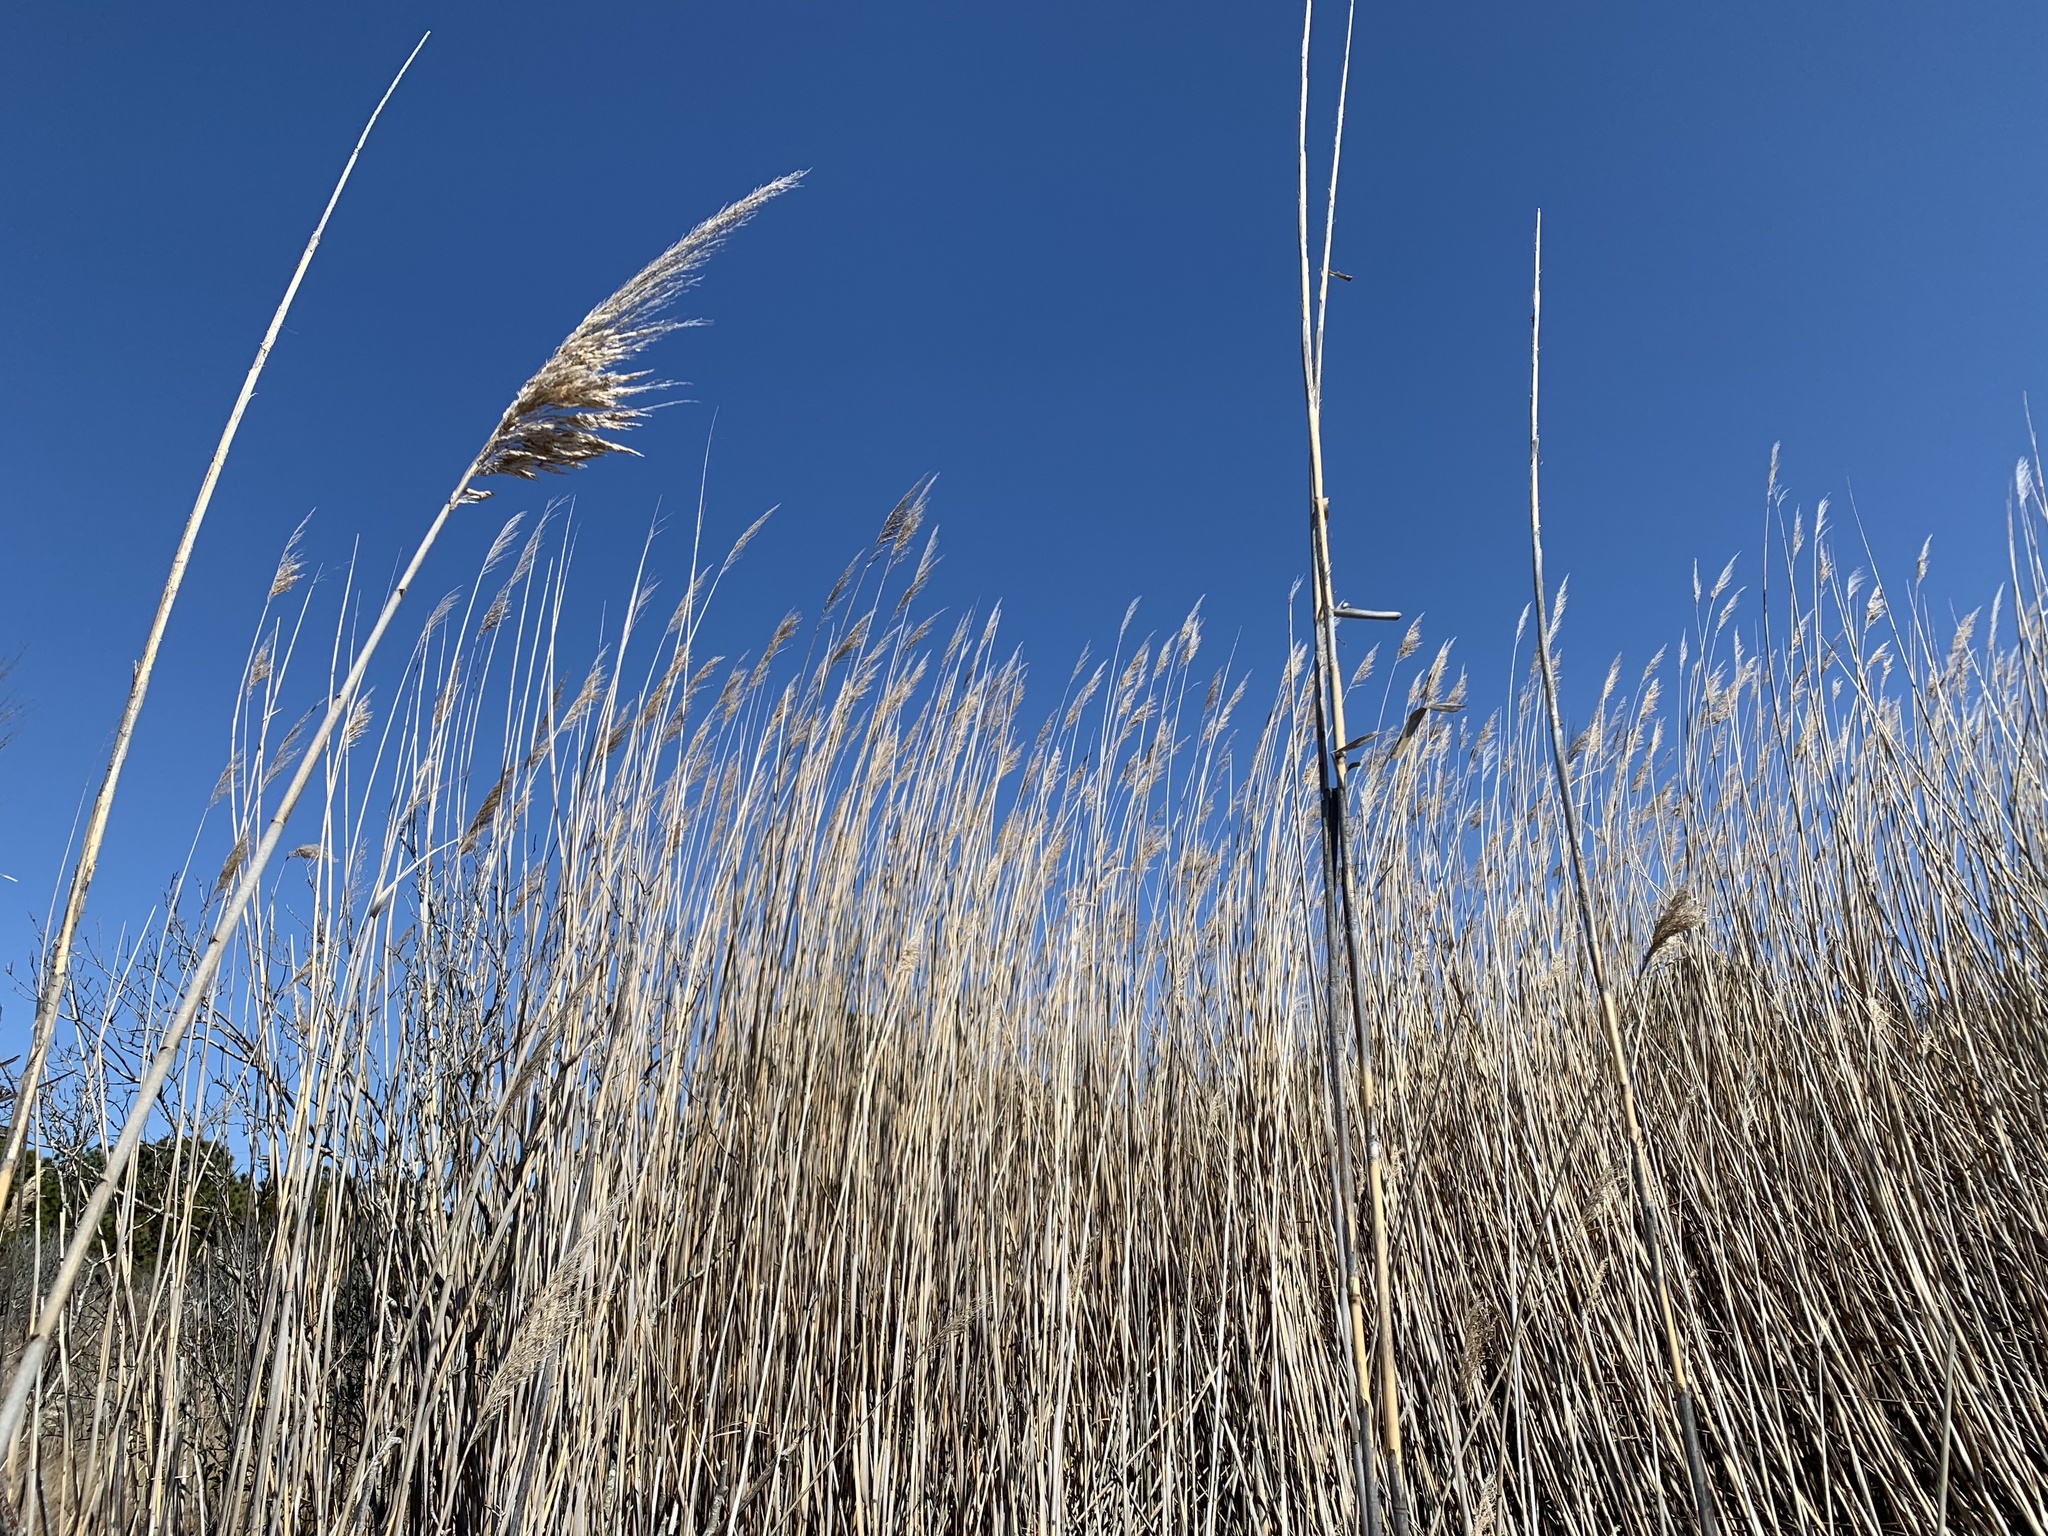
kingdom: Plantae
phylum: Tracheophyta
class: Liliopsida
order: Poales
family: Poaceae
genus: Phragmites
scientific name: Phragmites australis
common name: Common reed
